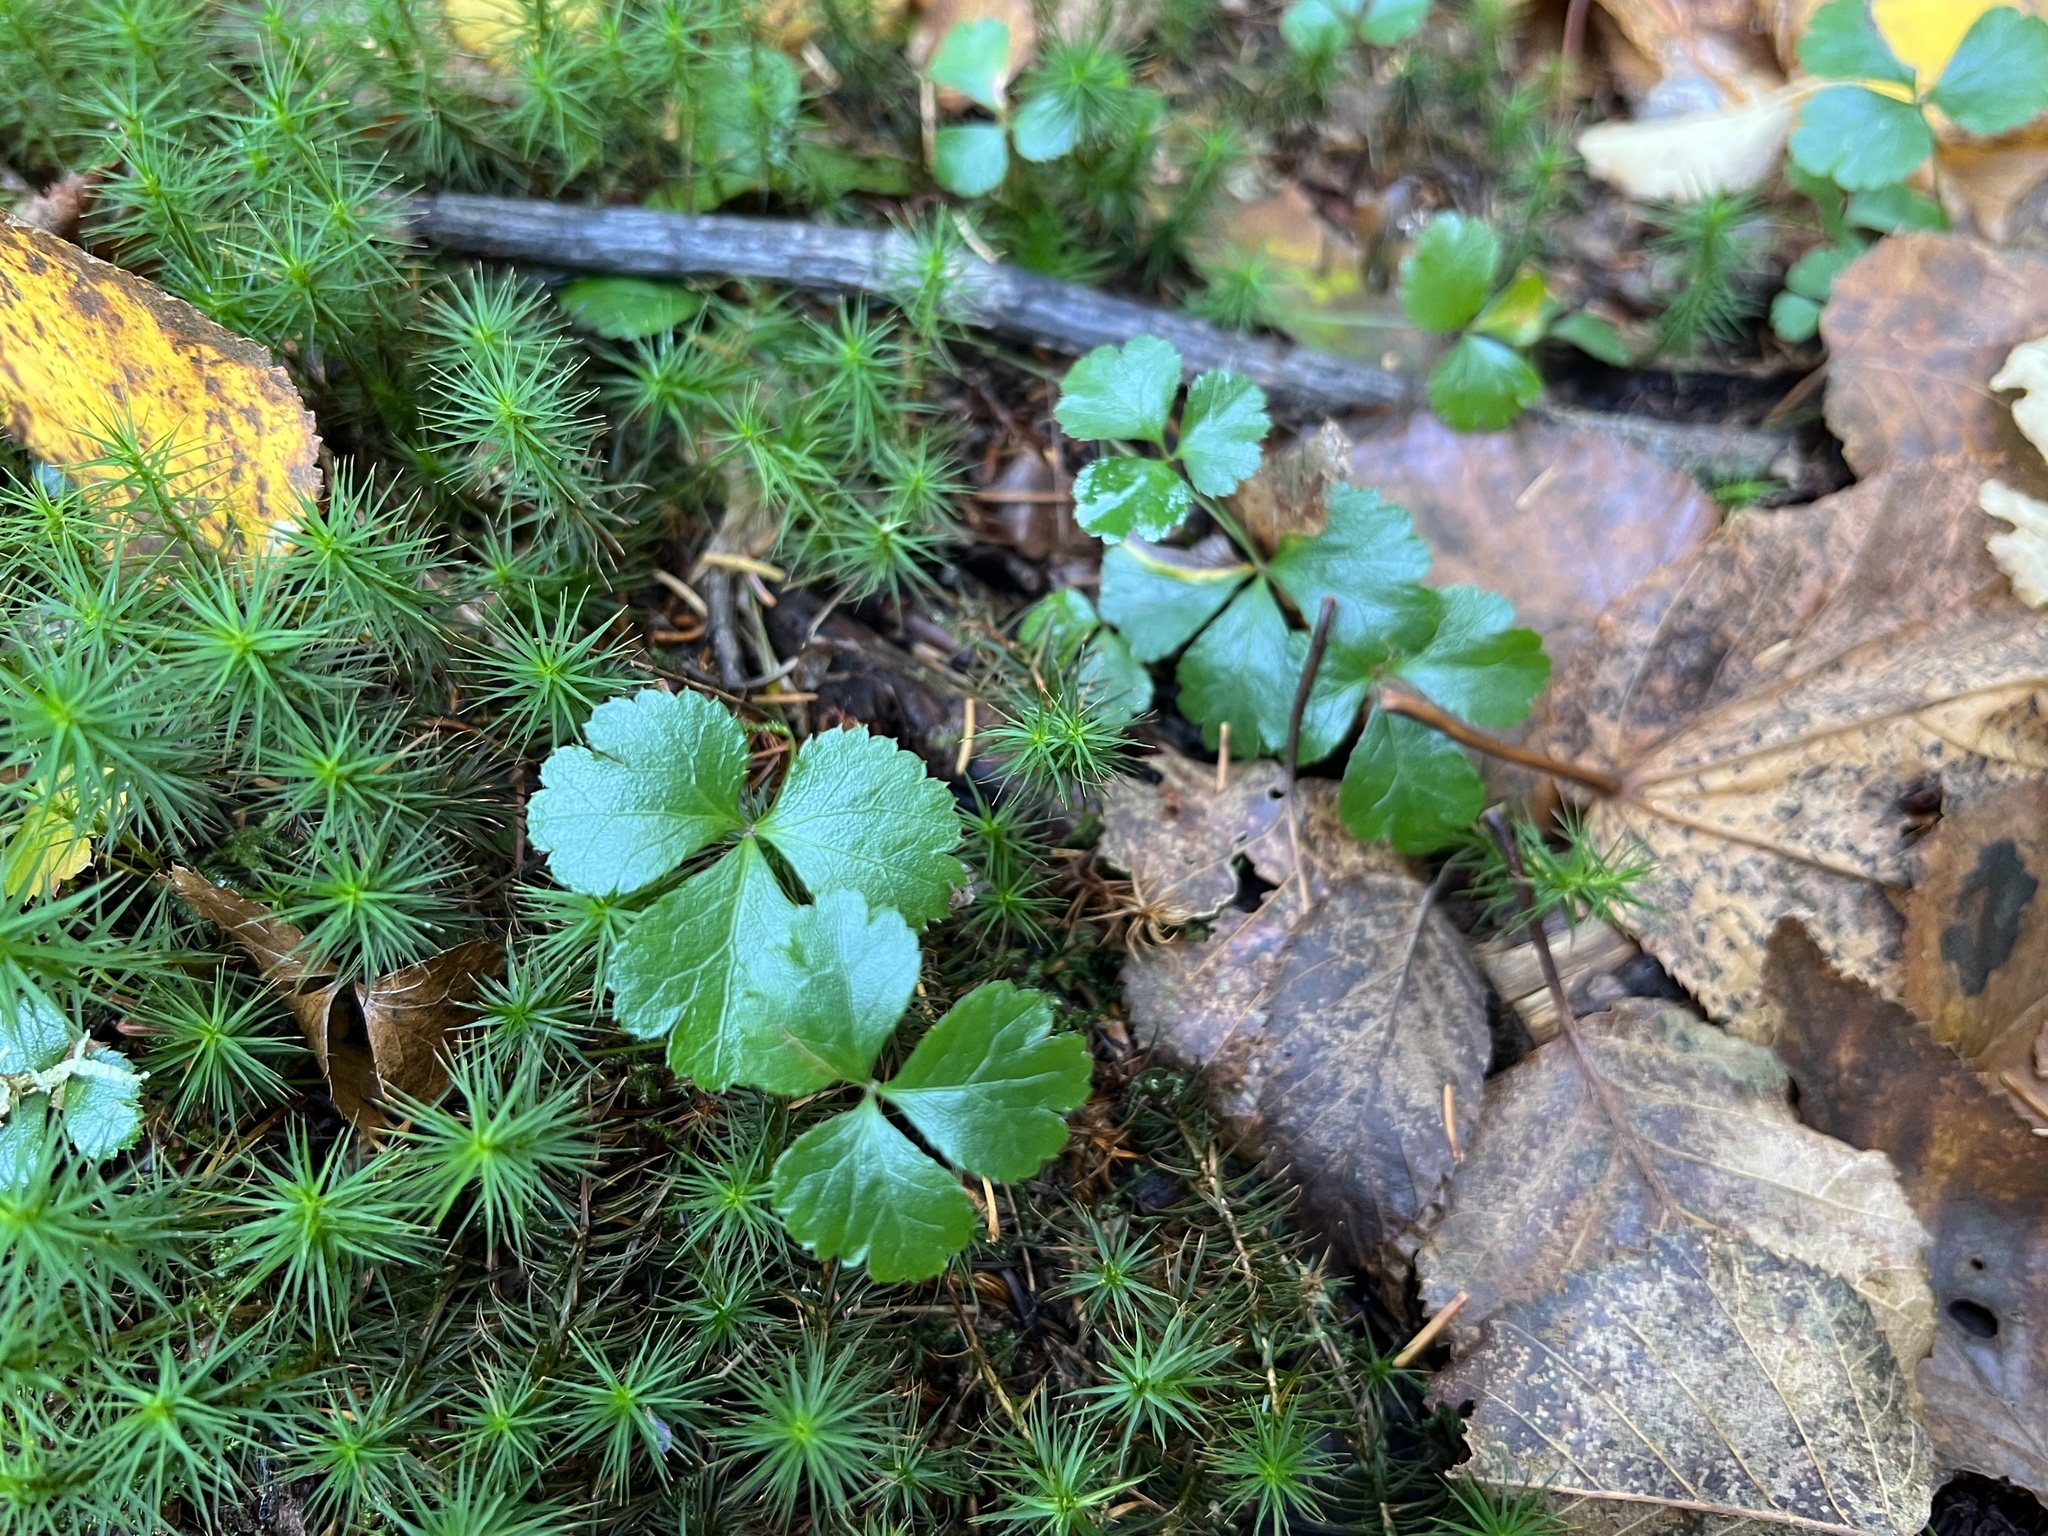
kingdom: Plantae
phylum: Tracheophyta
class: Magnoliopsida
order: Ranunculales
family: Ranunculaceae
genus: Coptis
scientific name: Coptis trifolia
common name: Canker-root
